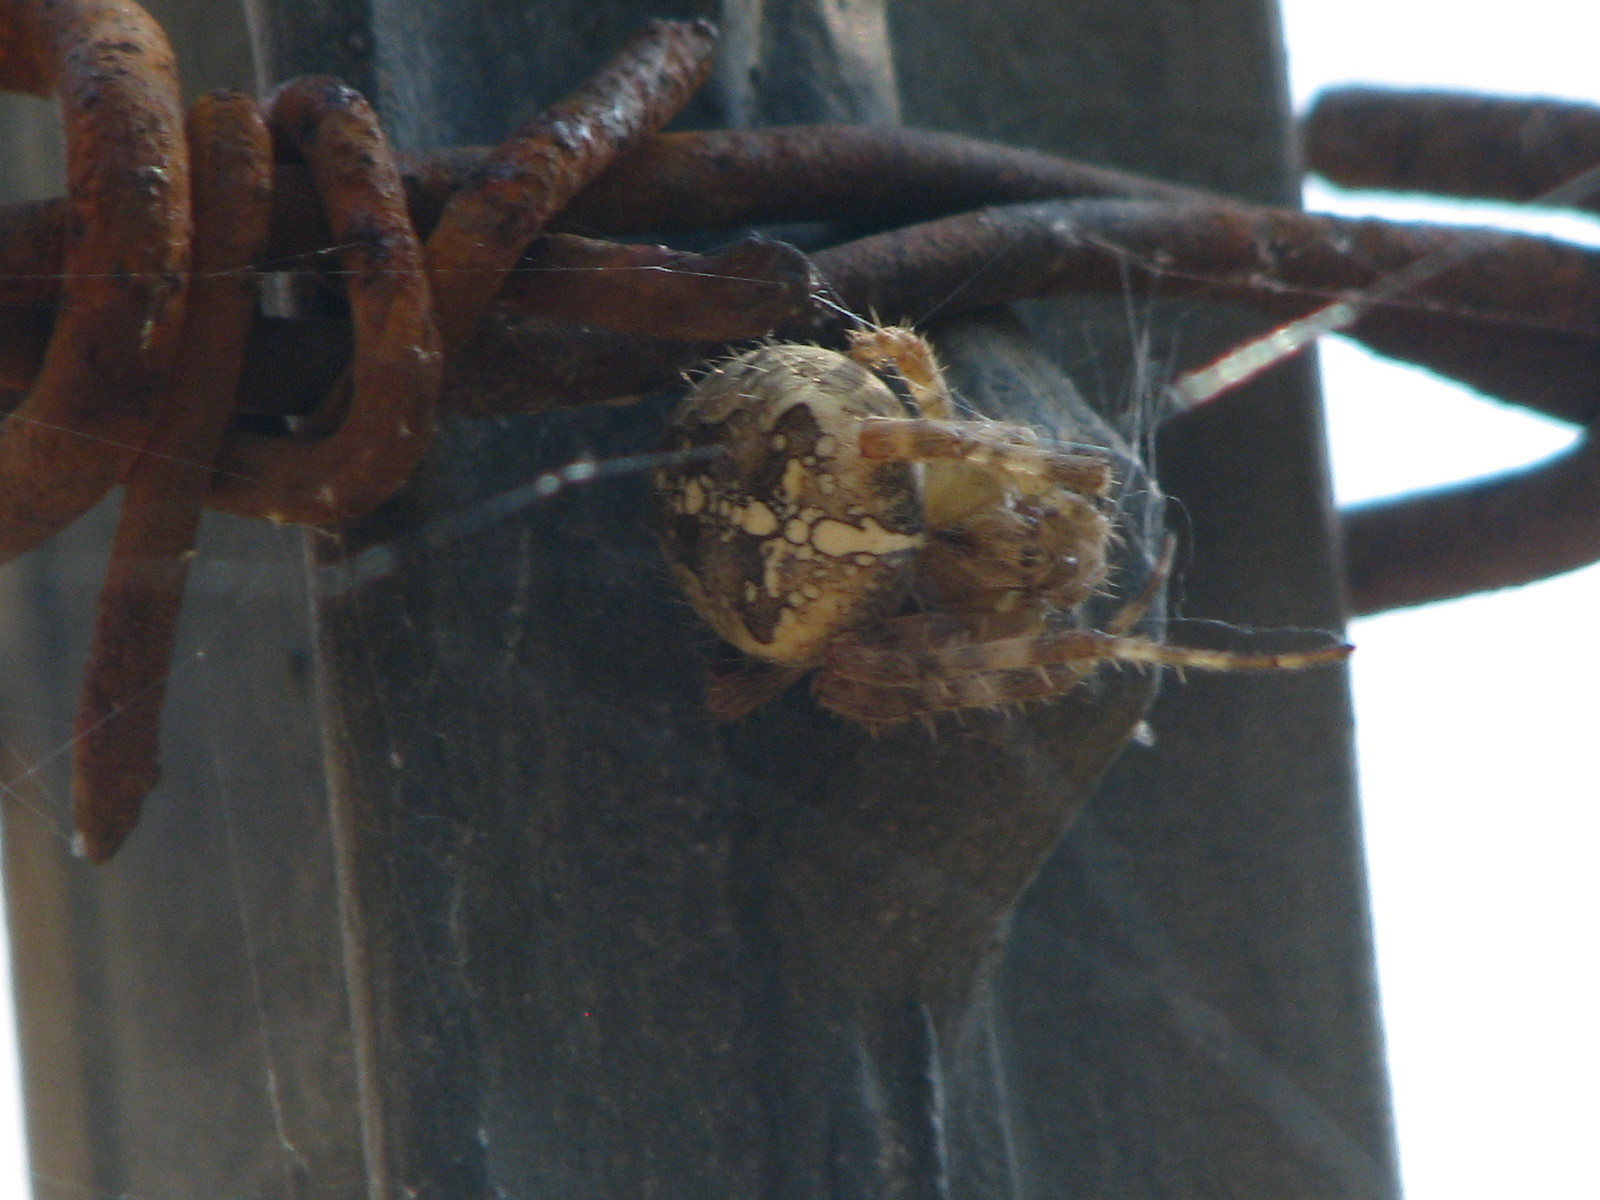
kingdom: Animalia
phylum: Arthropoda
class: Arachnida
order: Araneae
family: Araneidae
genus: Araneus
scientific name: Araneus diadematus
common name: Cross orbweaver
